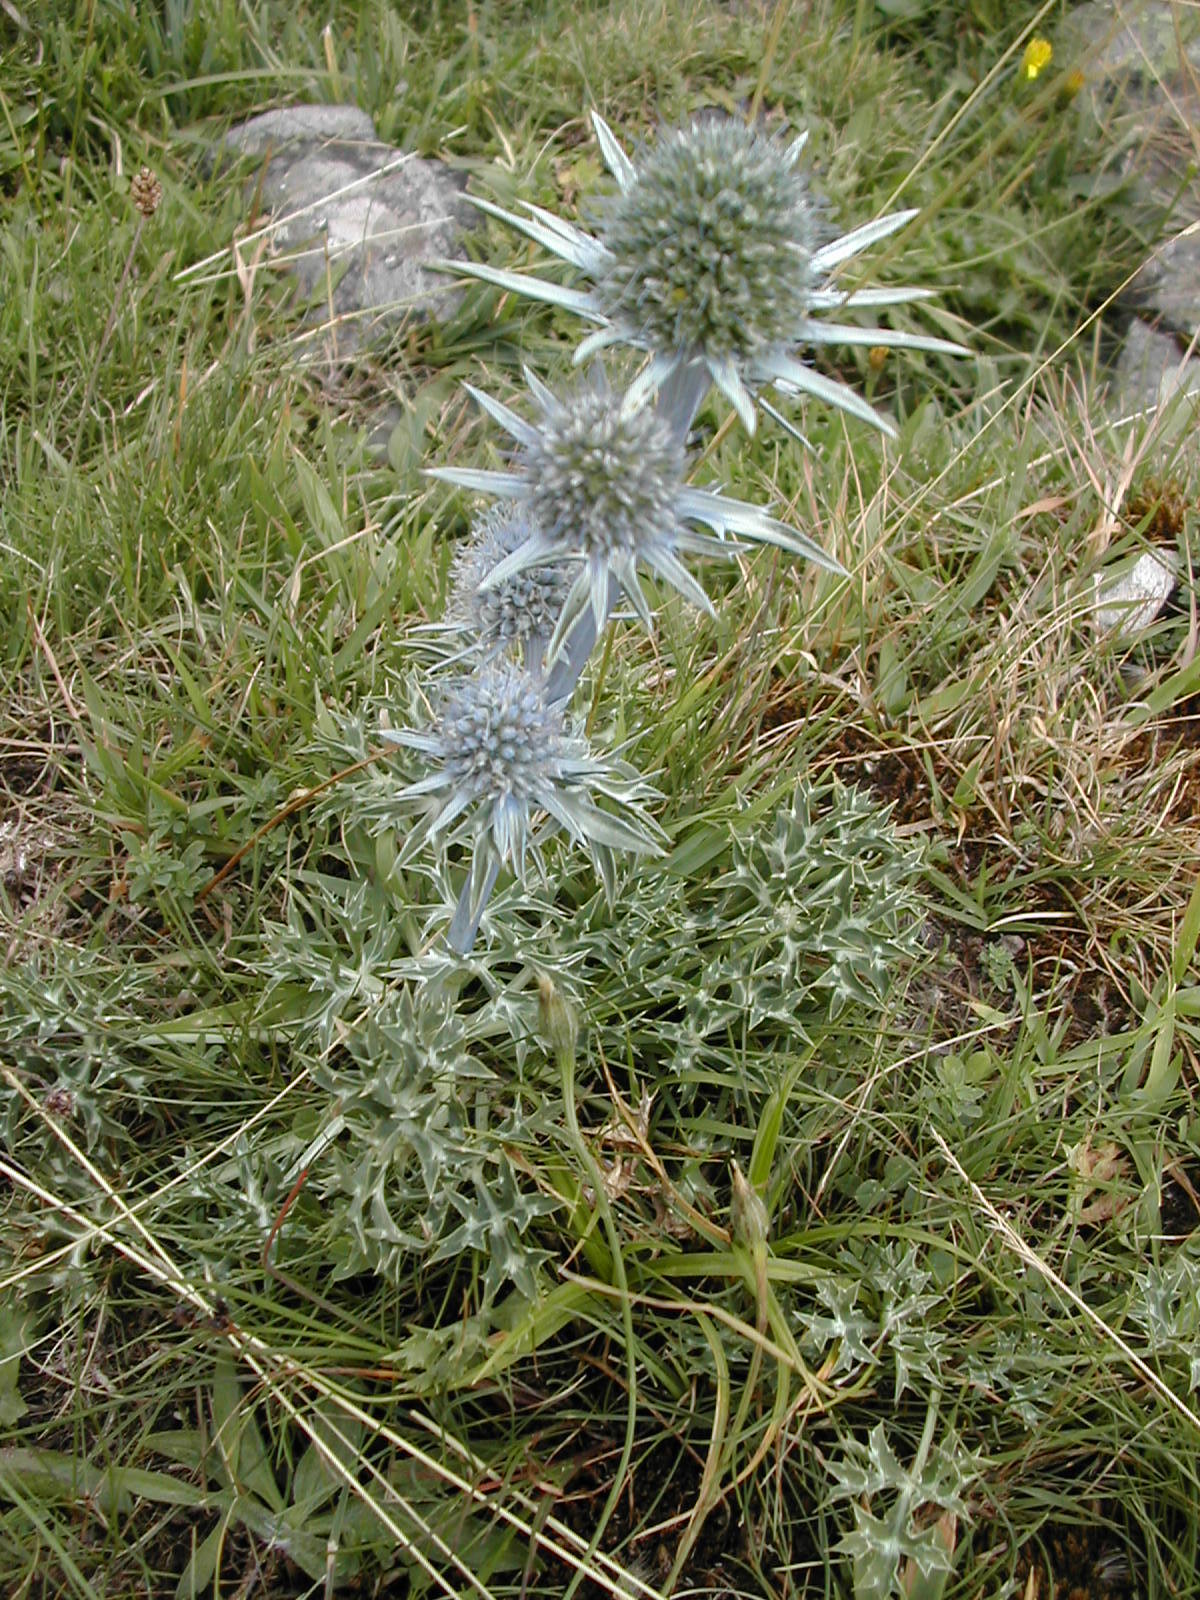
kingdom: Plantae
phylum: Tracheophyta
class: Magnoliopsida
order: Apiales
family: Apiaceae
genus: Eryngium
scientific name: Eryngium bourgatii
